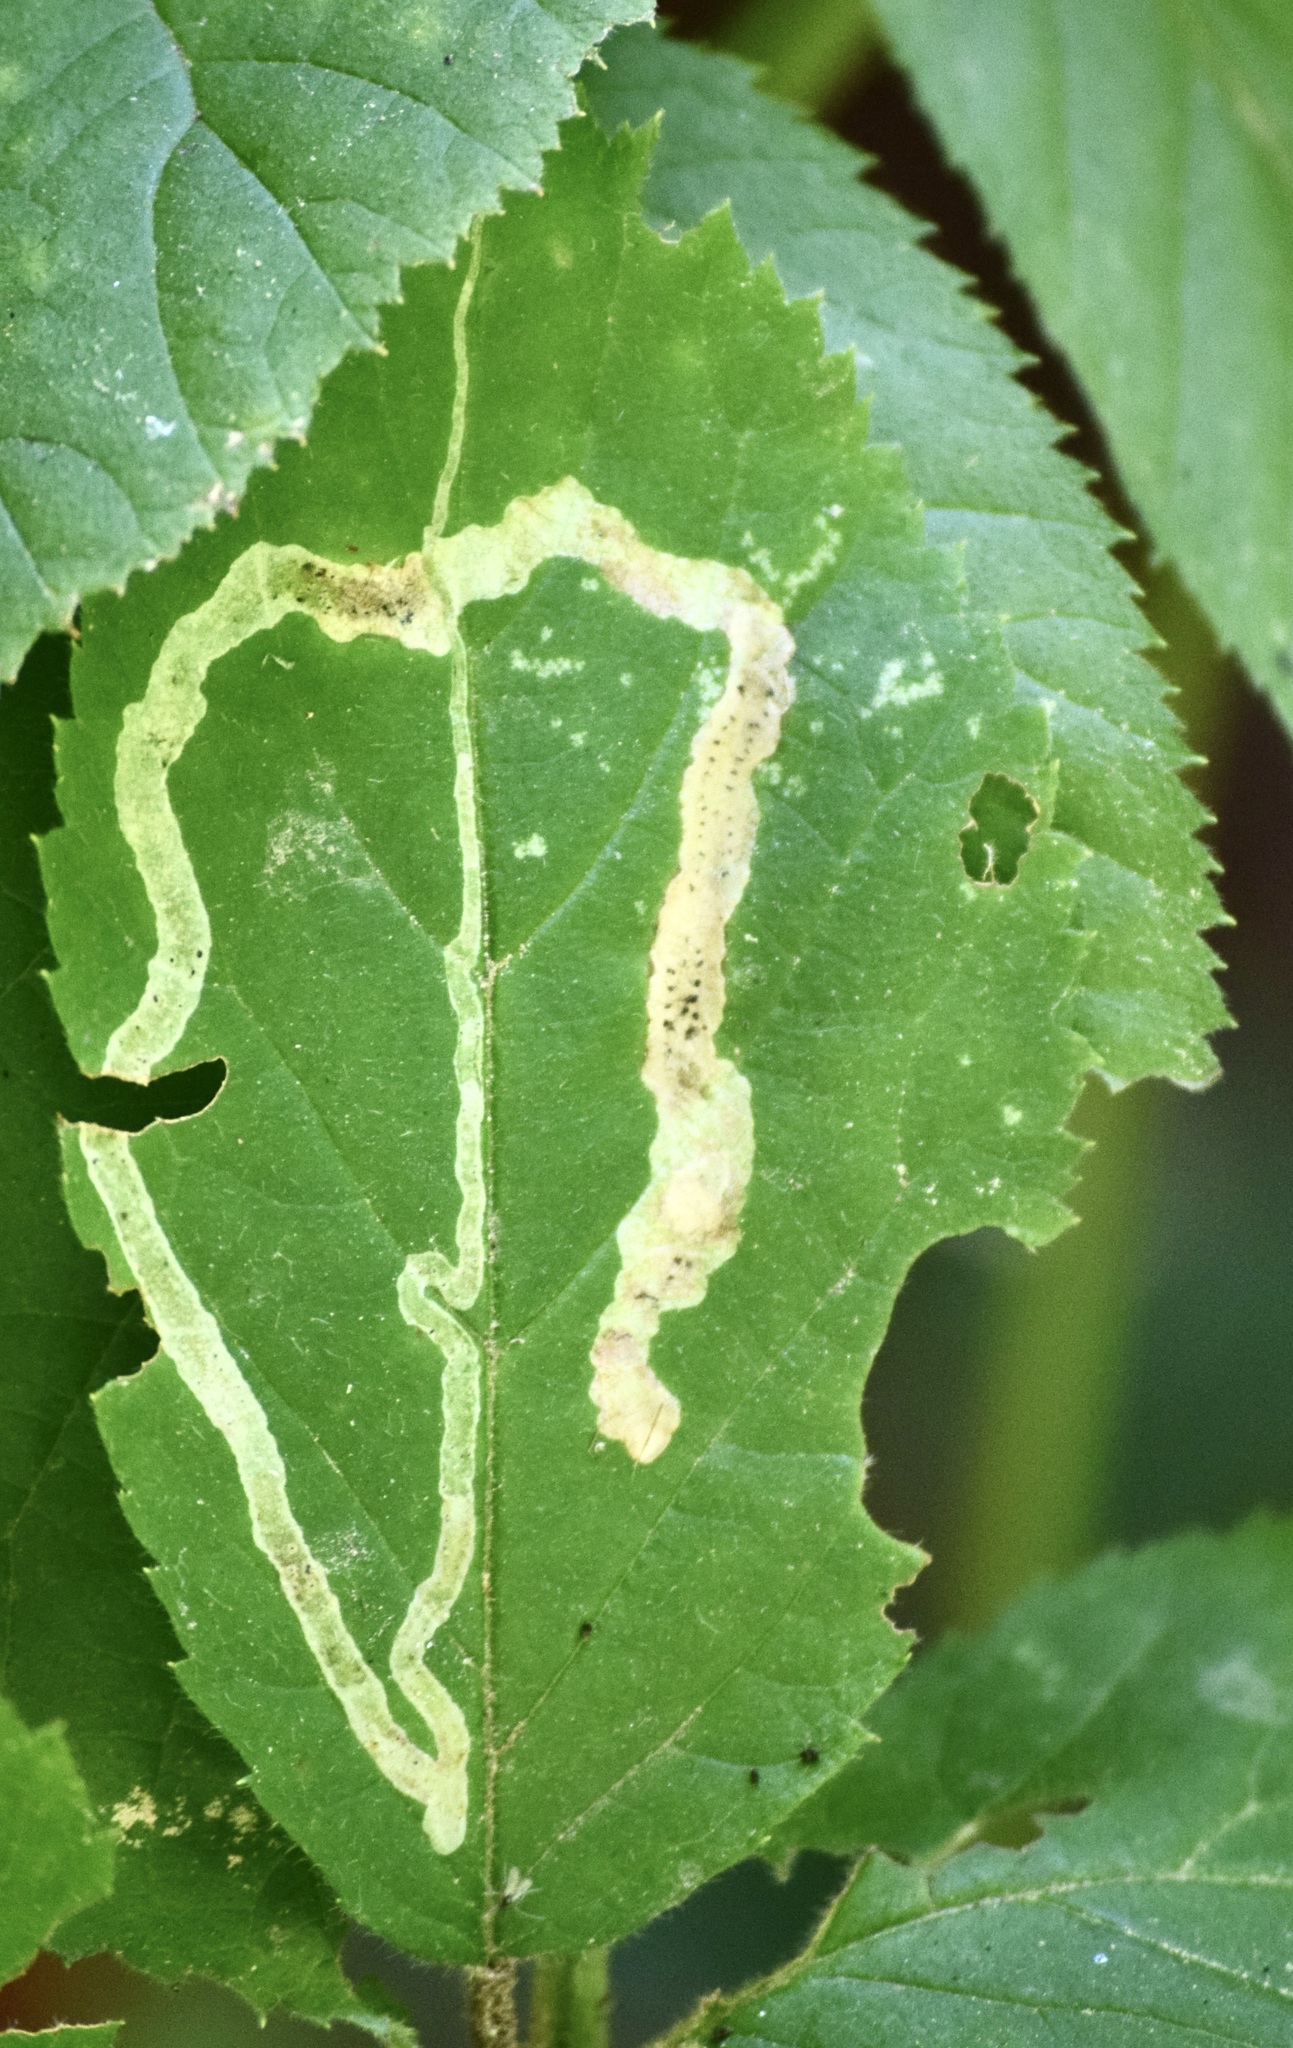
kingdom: Animalia
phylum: Arthropoda
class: Insecta
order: Diptera
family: Agromyzidae
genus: Agromyza
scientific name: Agromyza vockerothi
